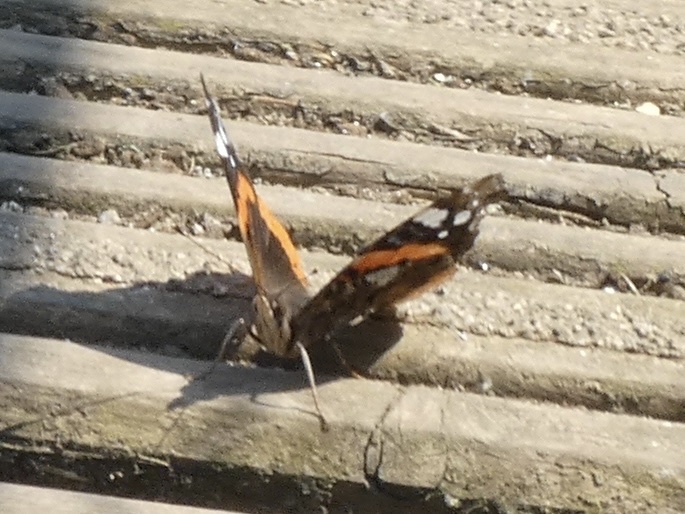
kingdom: Animalia
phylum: Arthropoda
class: Insecta
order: Lepidoptera
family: Nymphalidae
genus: Vanessa
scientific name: Vanessa atalanta
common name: Red admiral
